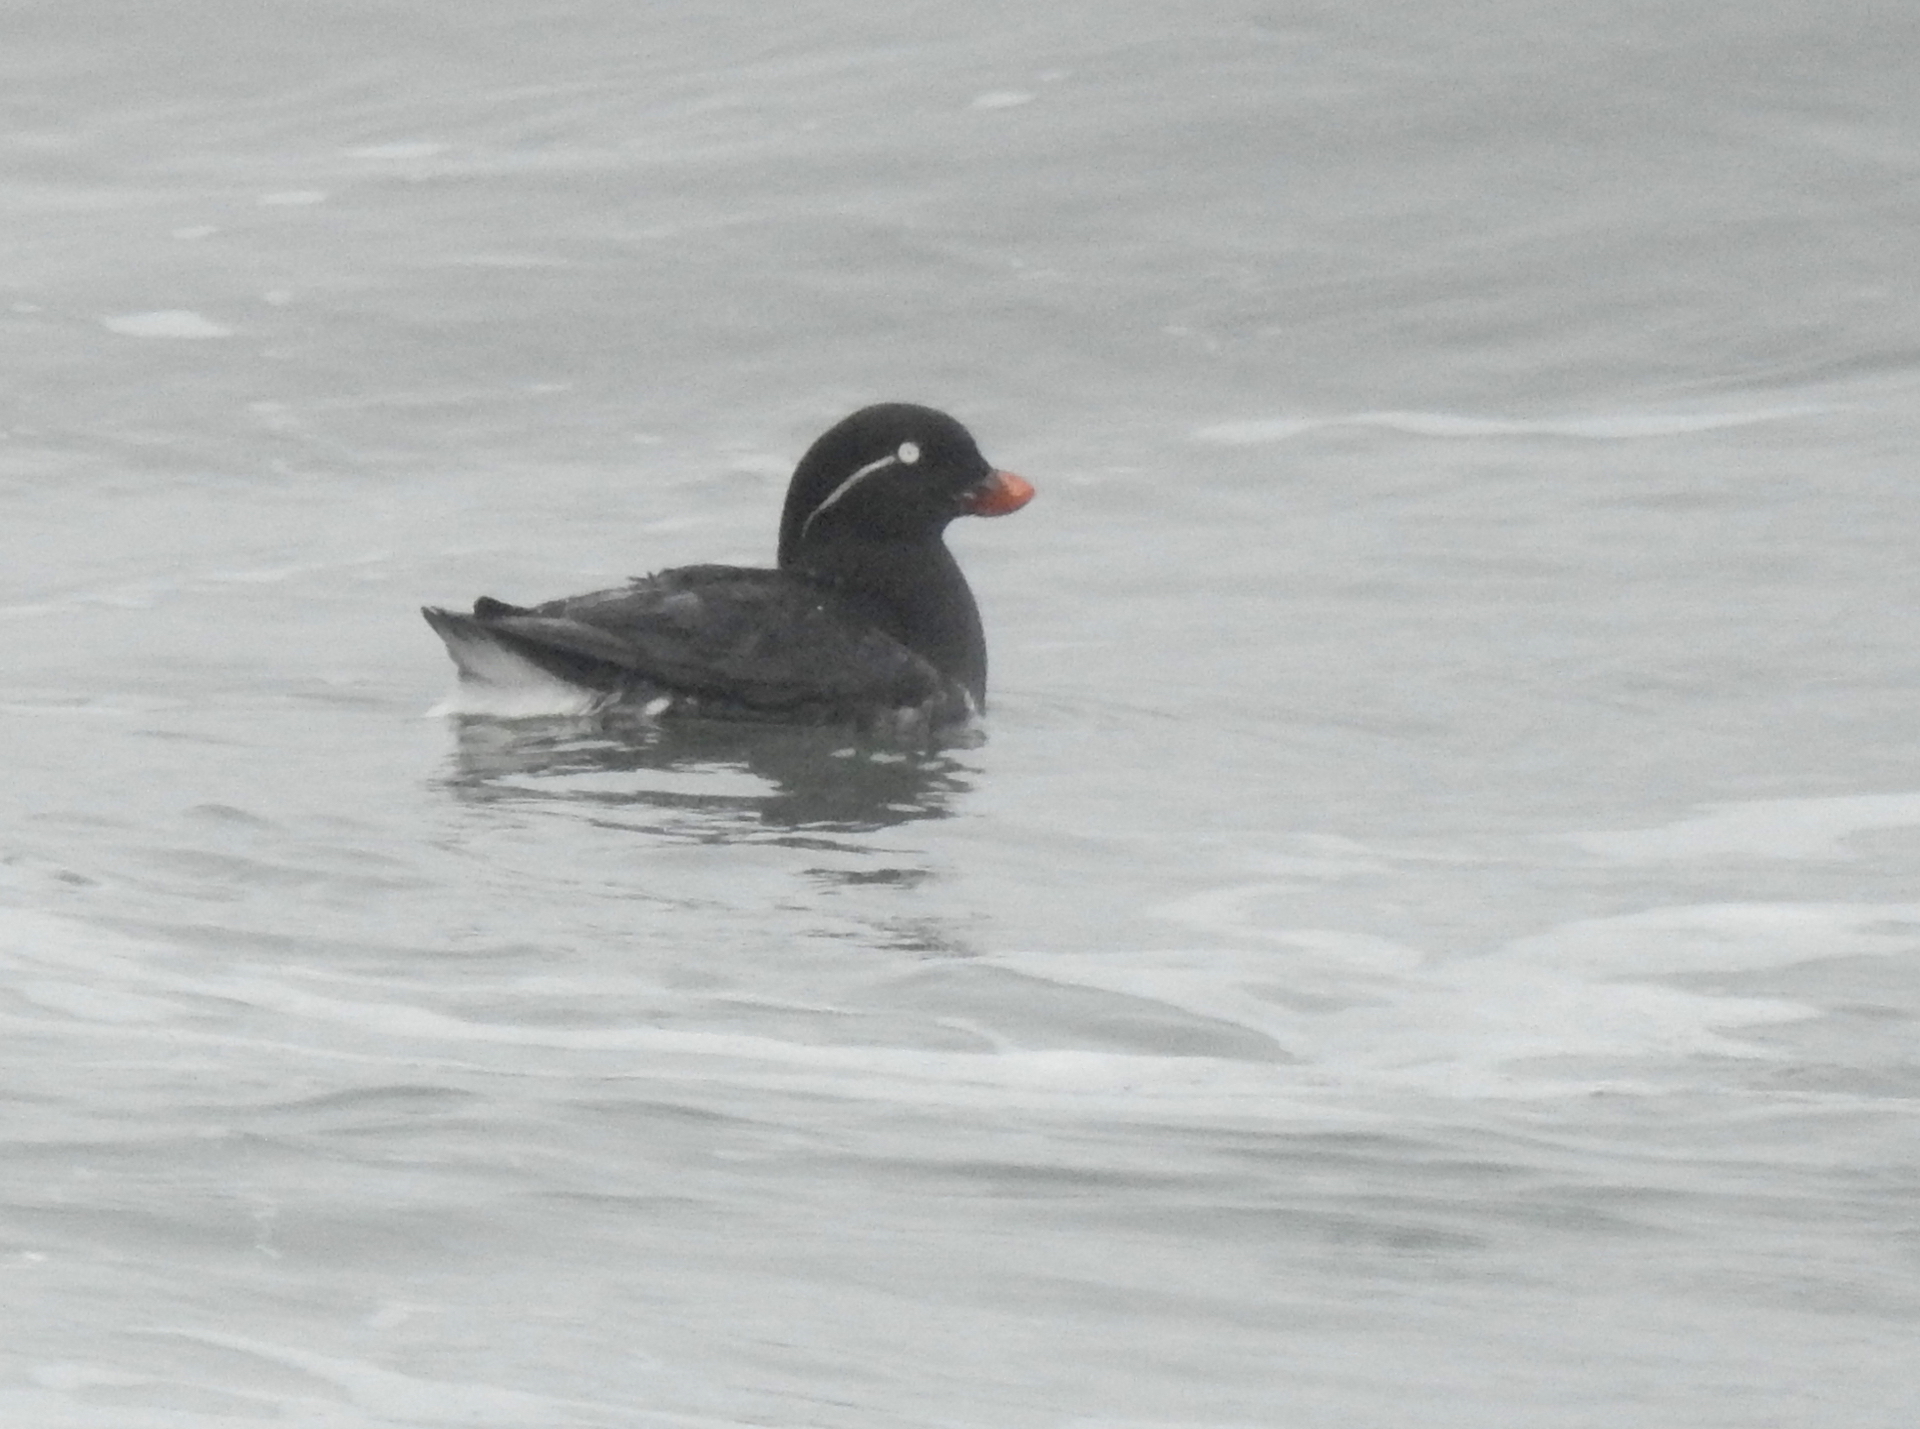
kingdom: Animalia
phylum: Chordata
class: Aves
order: Charadriiformes
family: Alcidae
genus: Aethia
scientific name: Aethia psittacula
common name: Parakeet auklet
